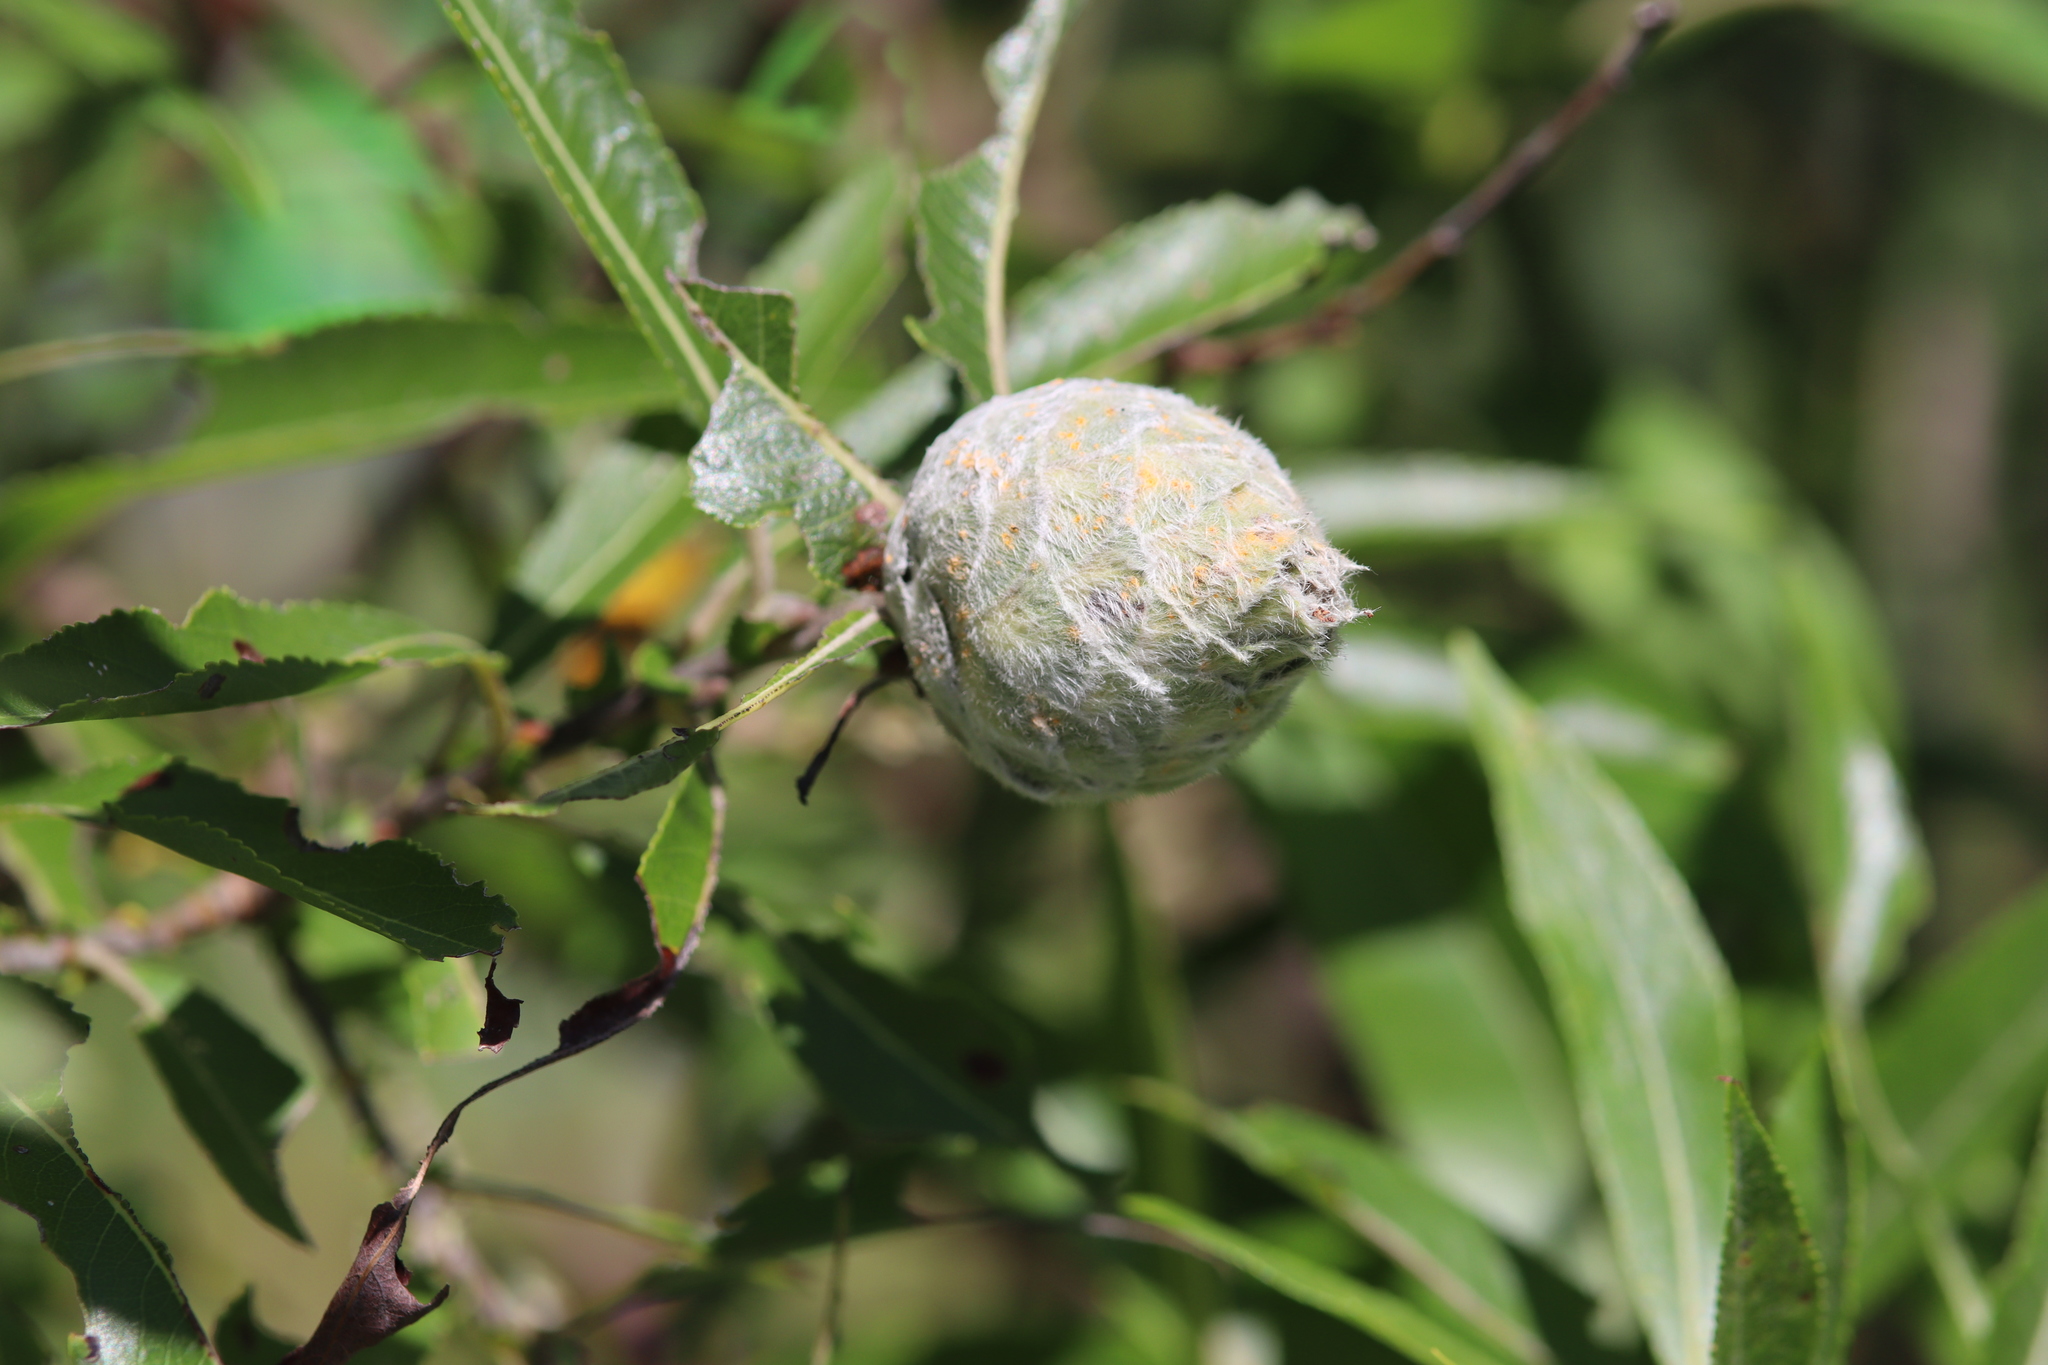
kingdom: Animalia
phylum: Arthropoda
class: Insecta
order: Diptera
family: Cecidomyiidae
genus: Rabdophaga
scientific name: Rabdophaga strobiloides
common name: Willow pinecone gall midge
